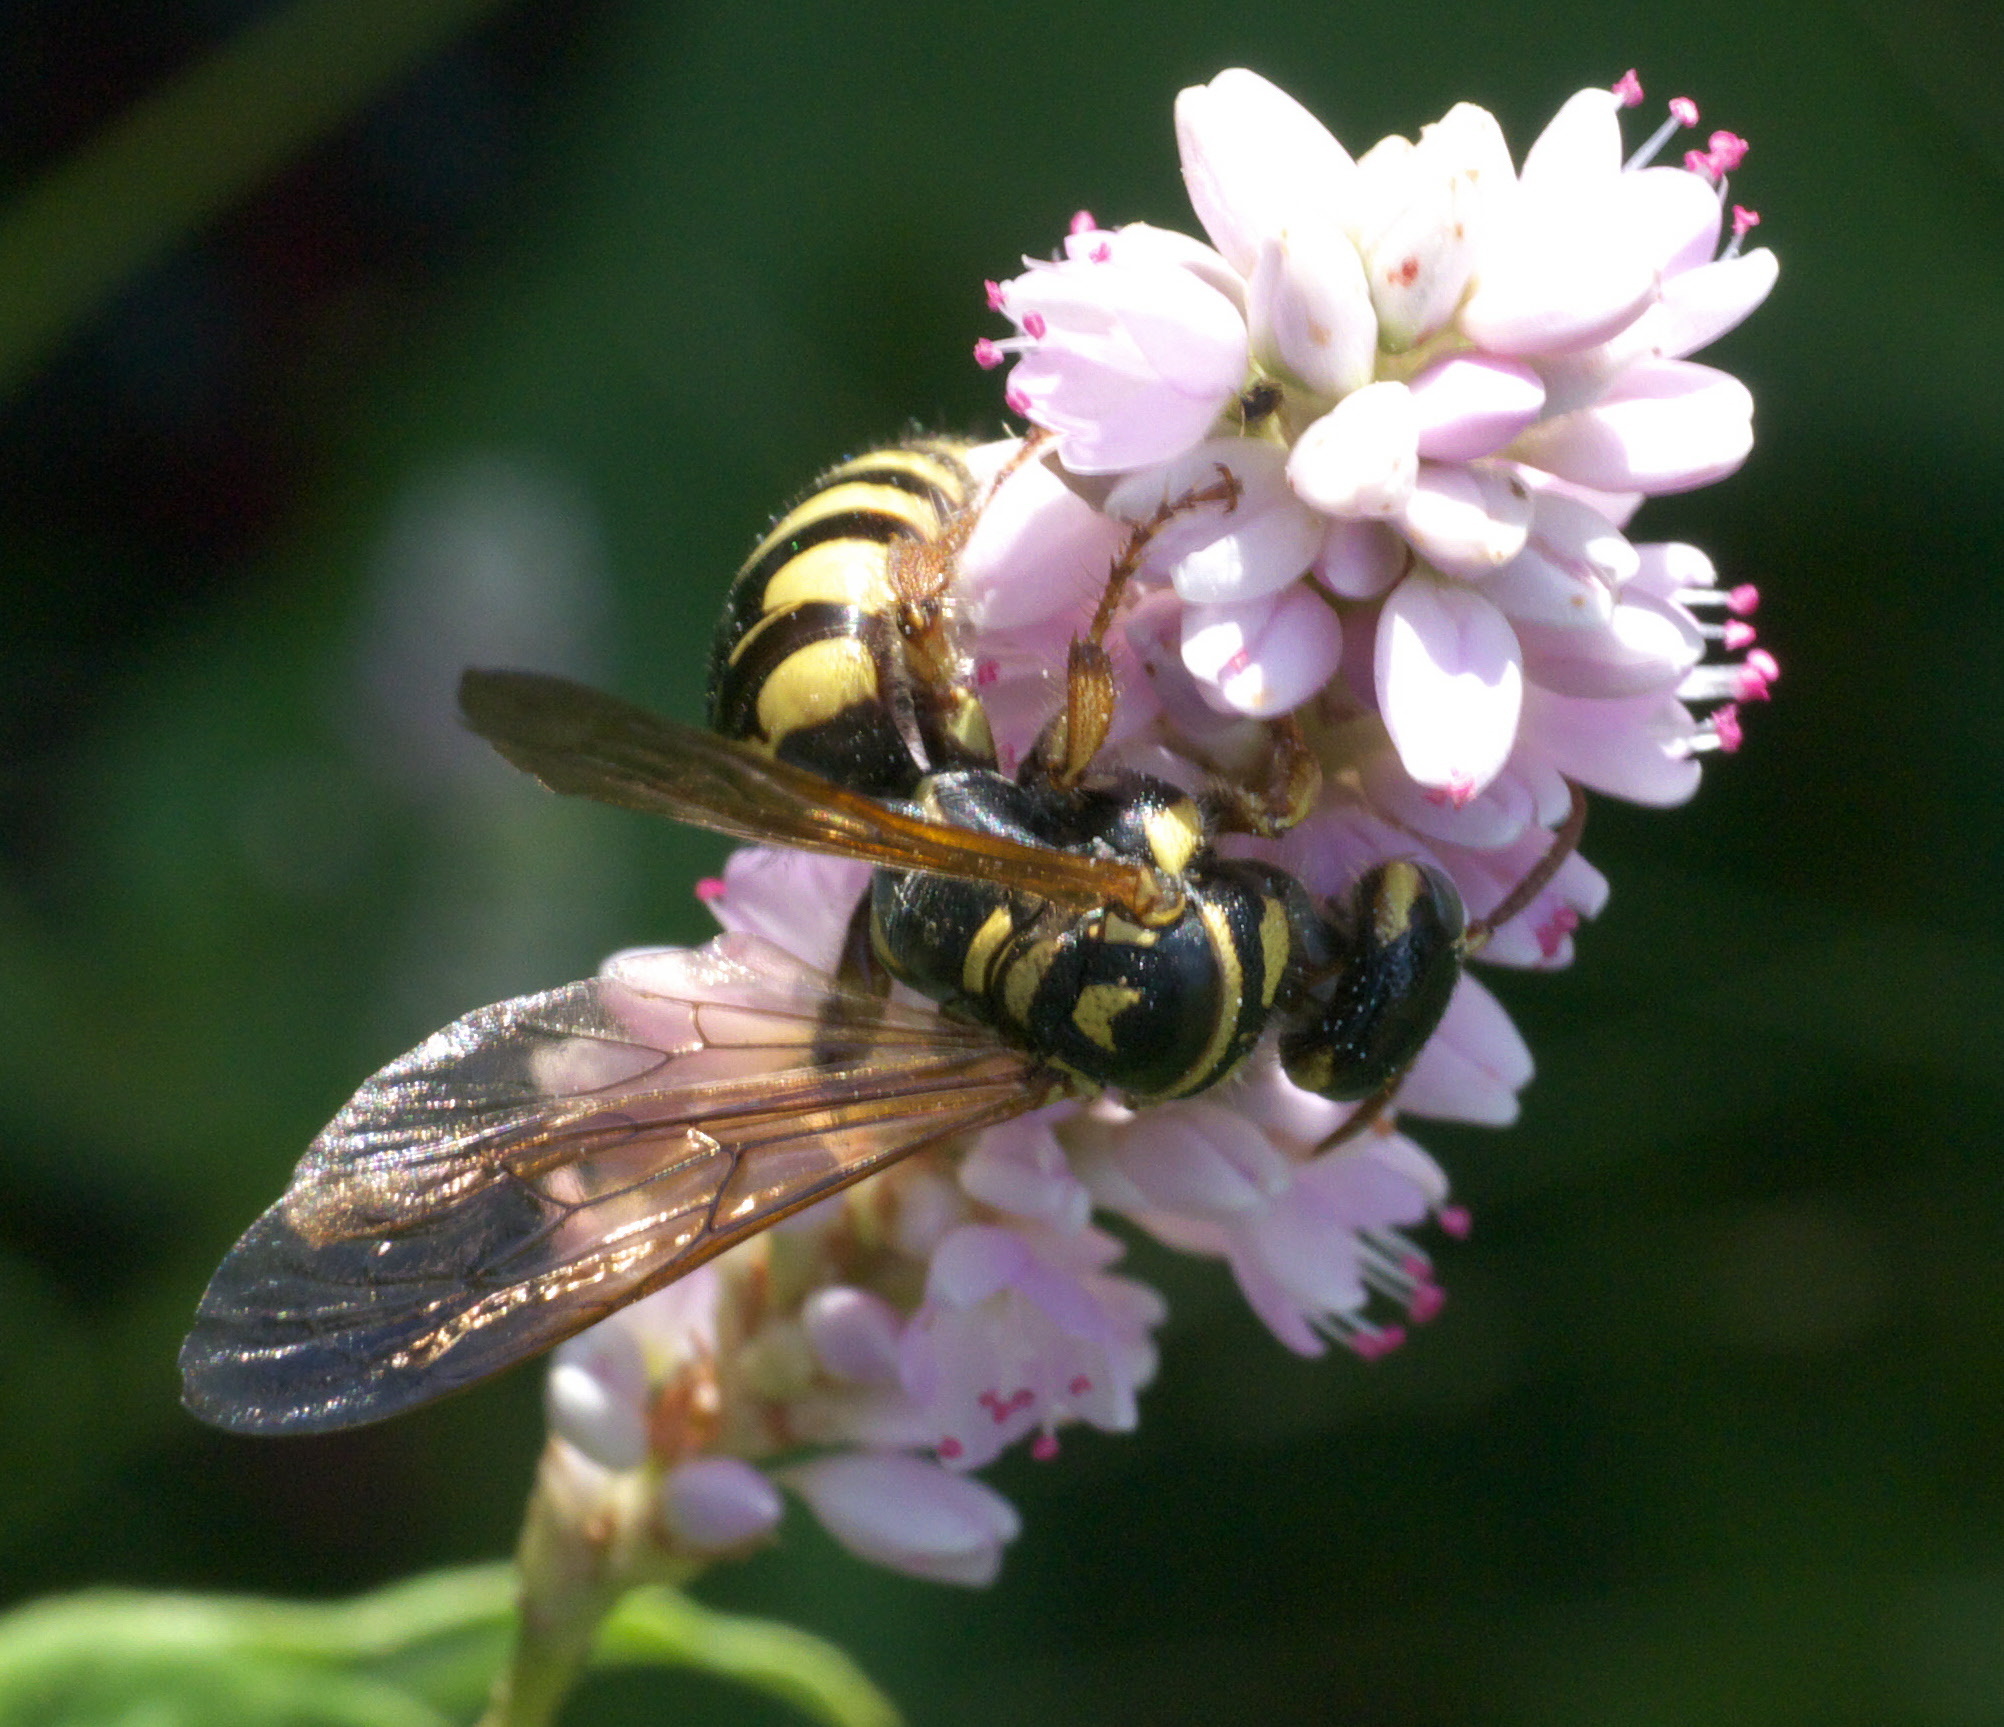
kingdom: Animalia
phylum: Arthropoda
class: Insecta
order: Hymenoptera
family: Tiphiidae
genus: Myzinum
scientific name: Myzinum quinquecinctum
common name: Five-banded thynnid wasp
